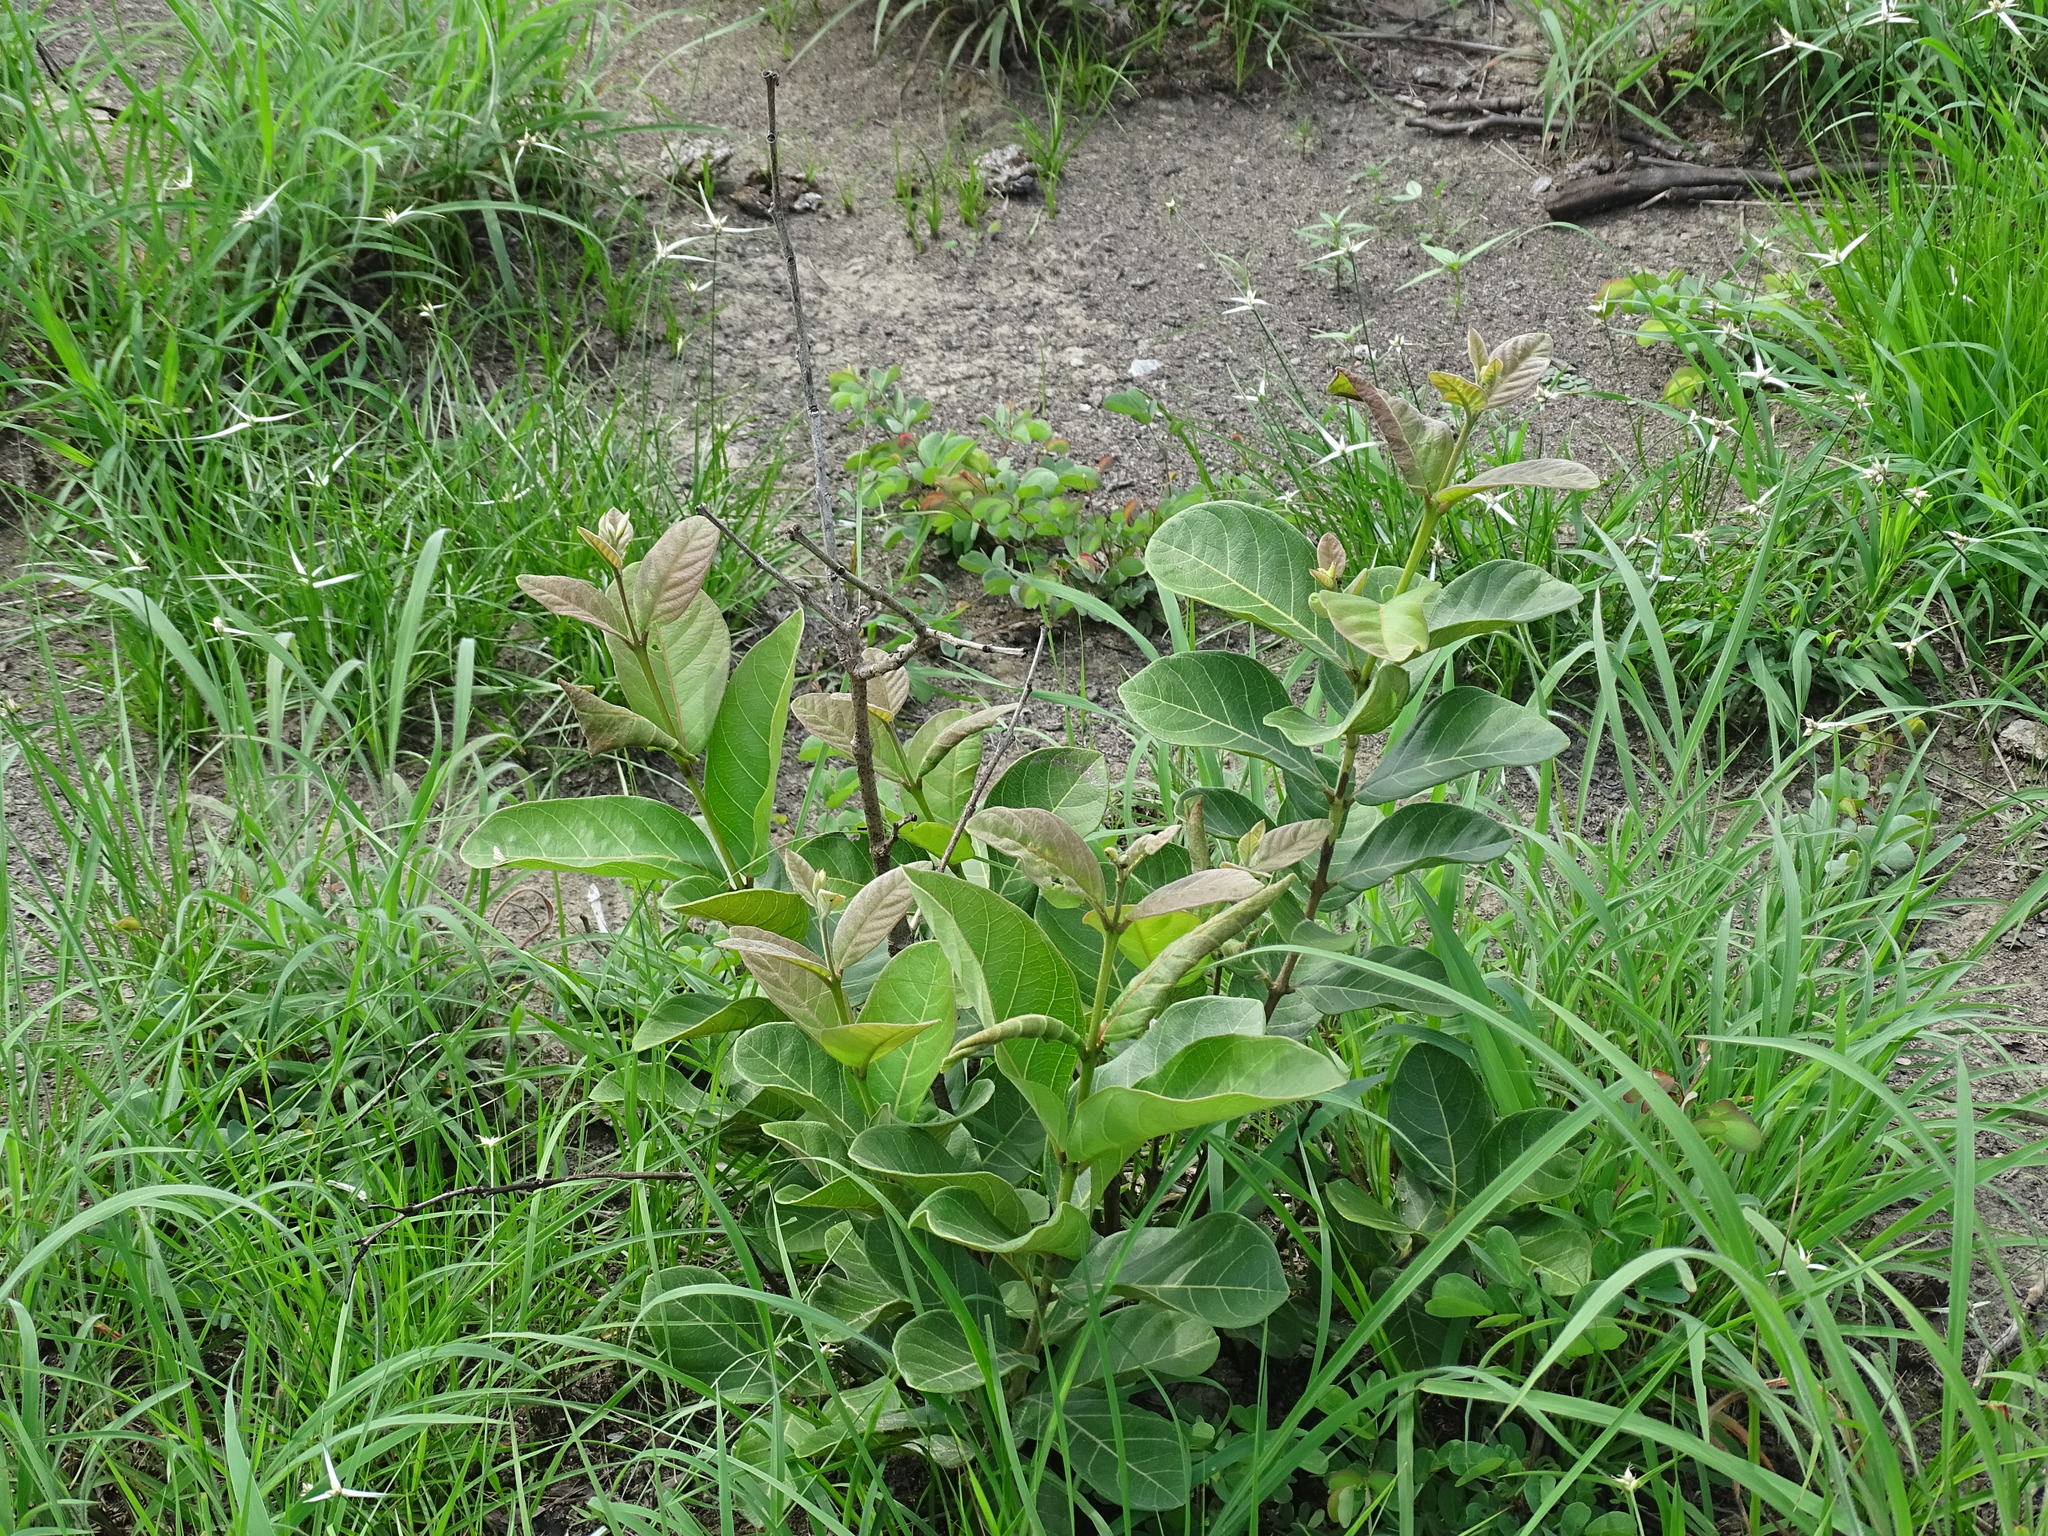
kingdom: Plantae
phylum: Tracheophyta
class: Magnoliopsida
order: Myrtales
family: Myrtaceae
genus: Psidium
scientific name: Psidium guineense
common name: Brazilian guava
